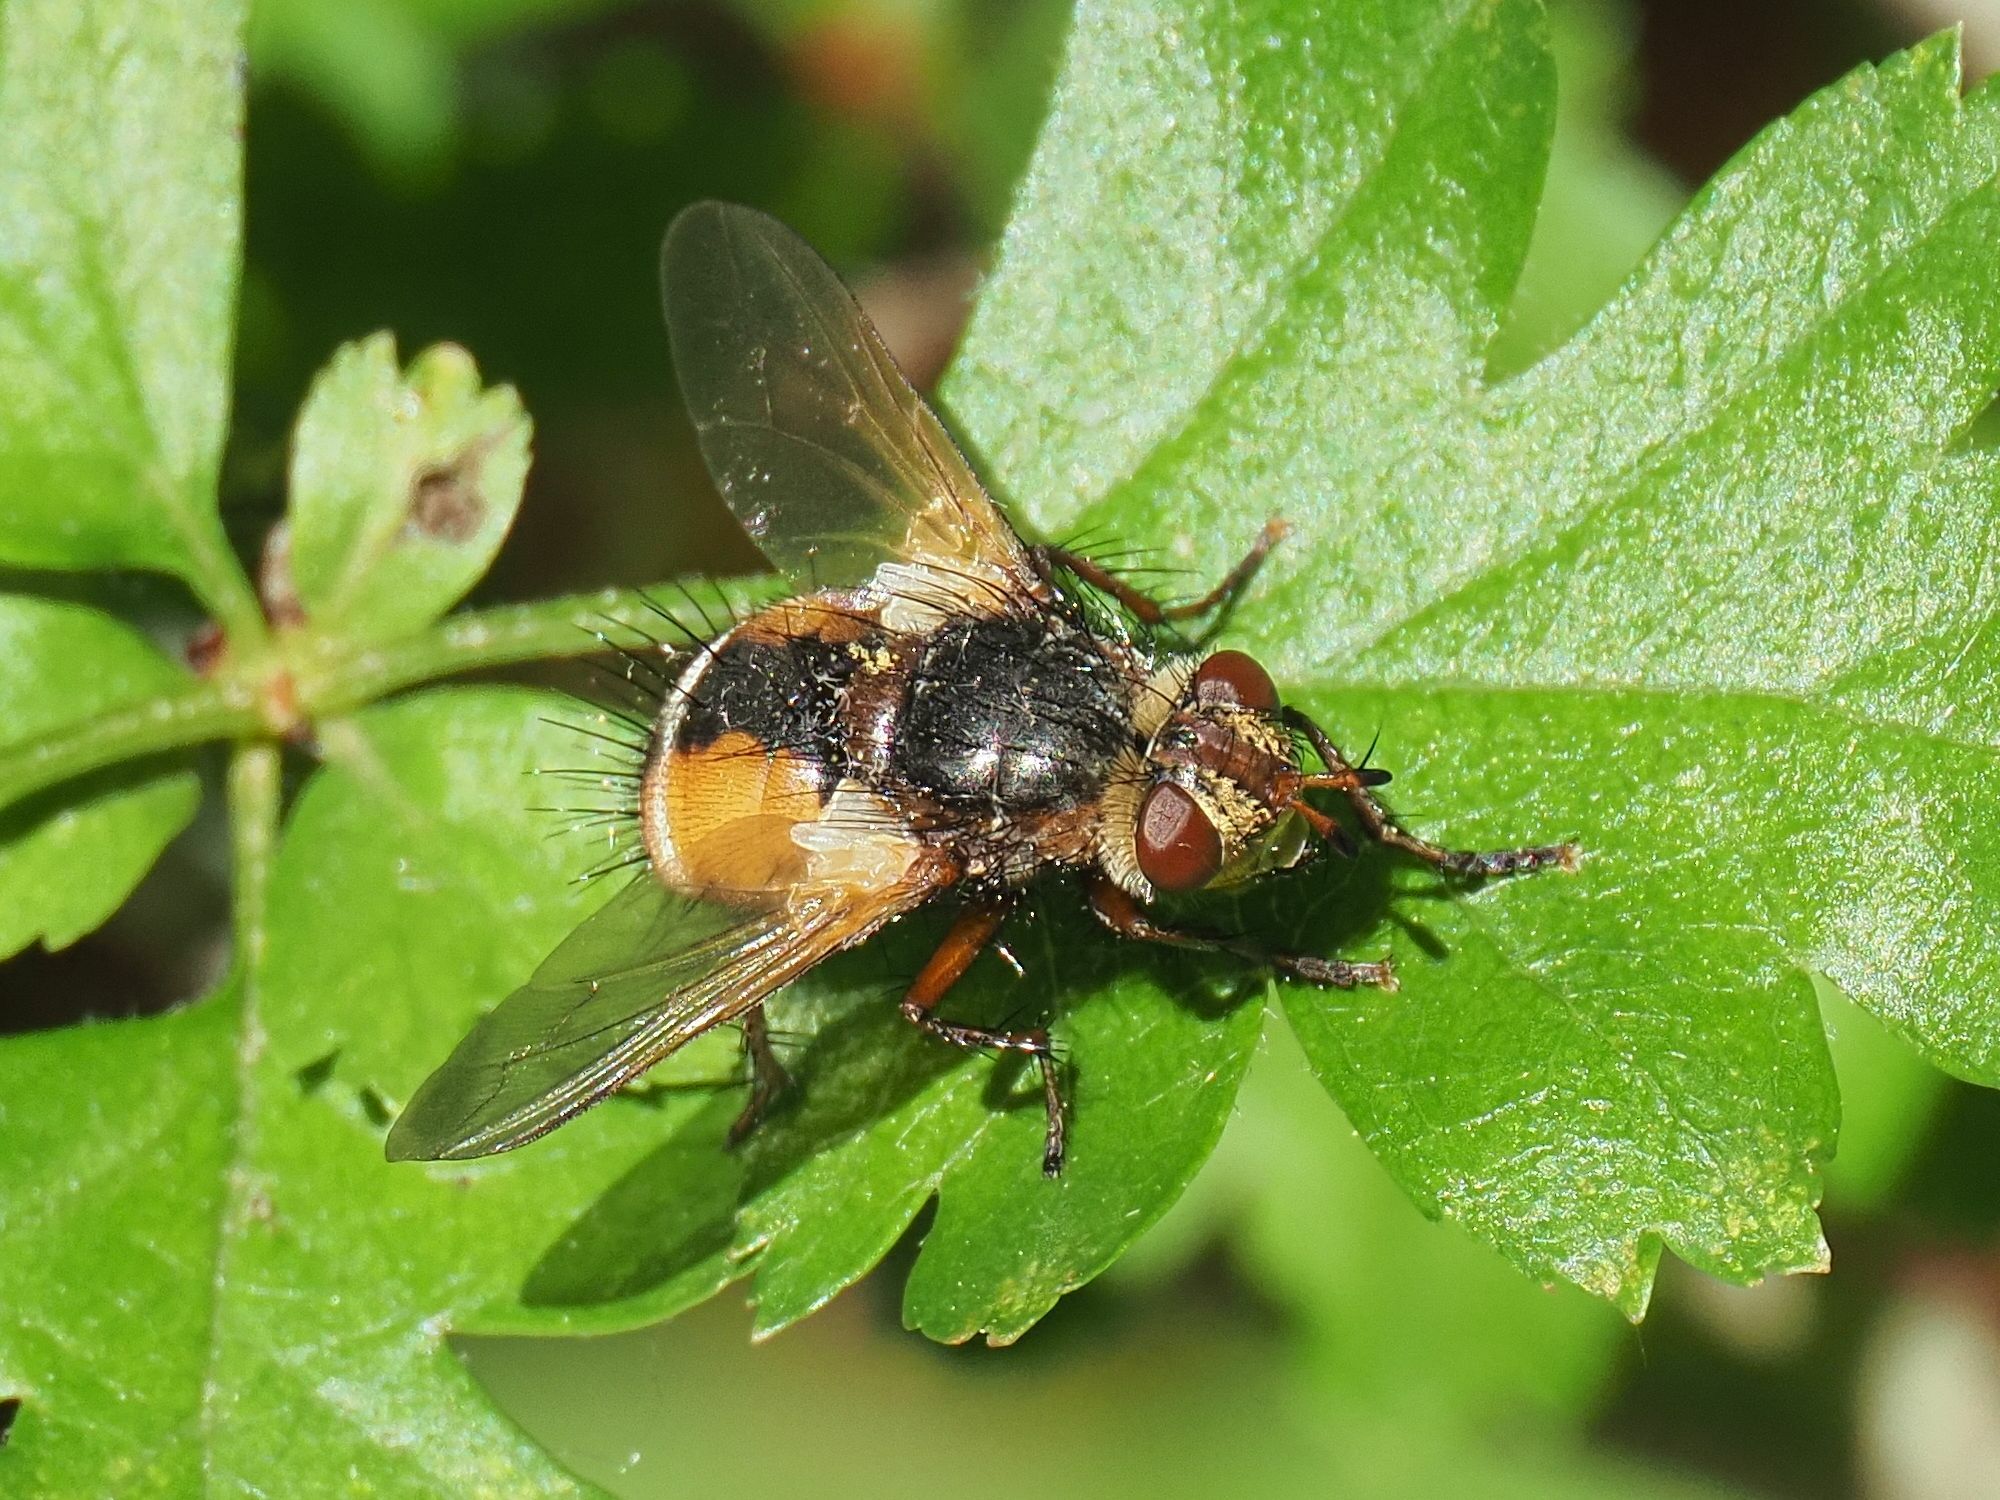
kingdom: Animalia
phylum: Arthropoda
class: Insecta
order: Diptera
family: Tachinidae
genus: Tachina
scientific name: Tachina fera
